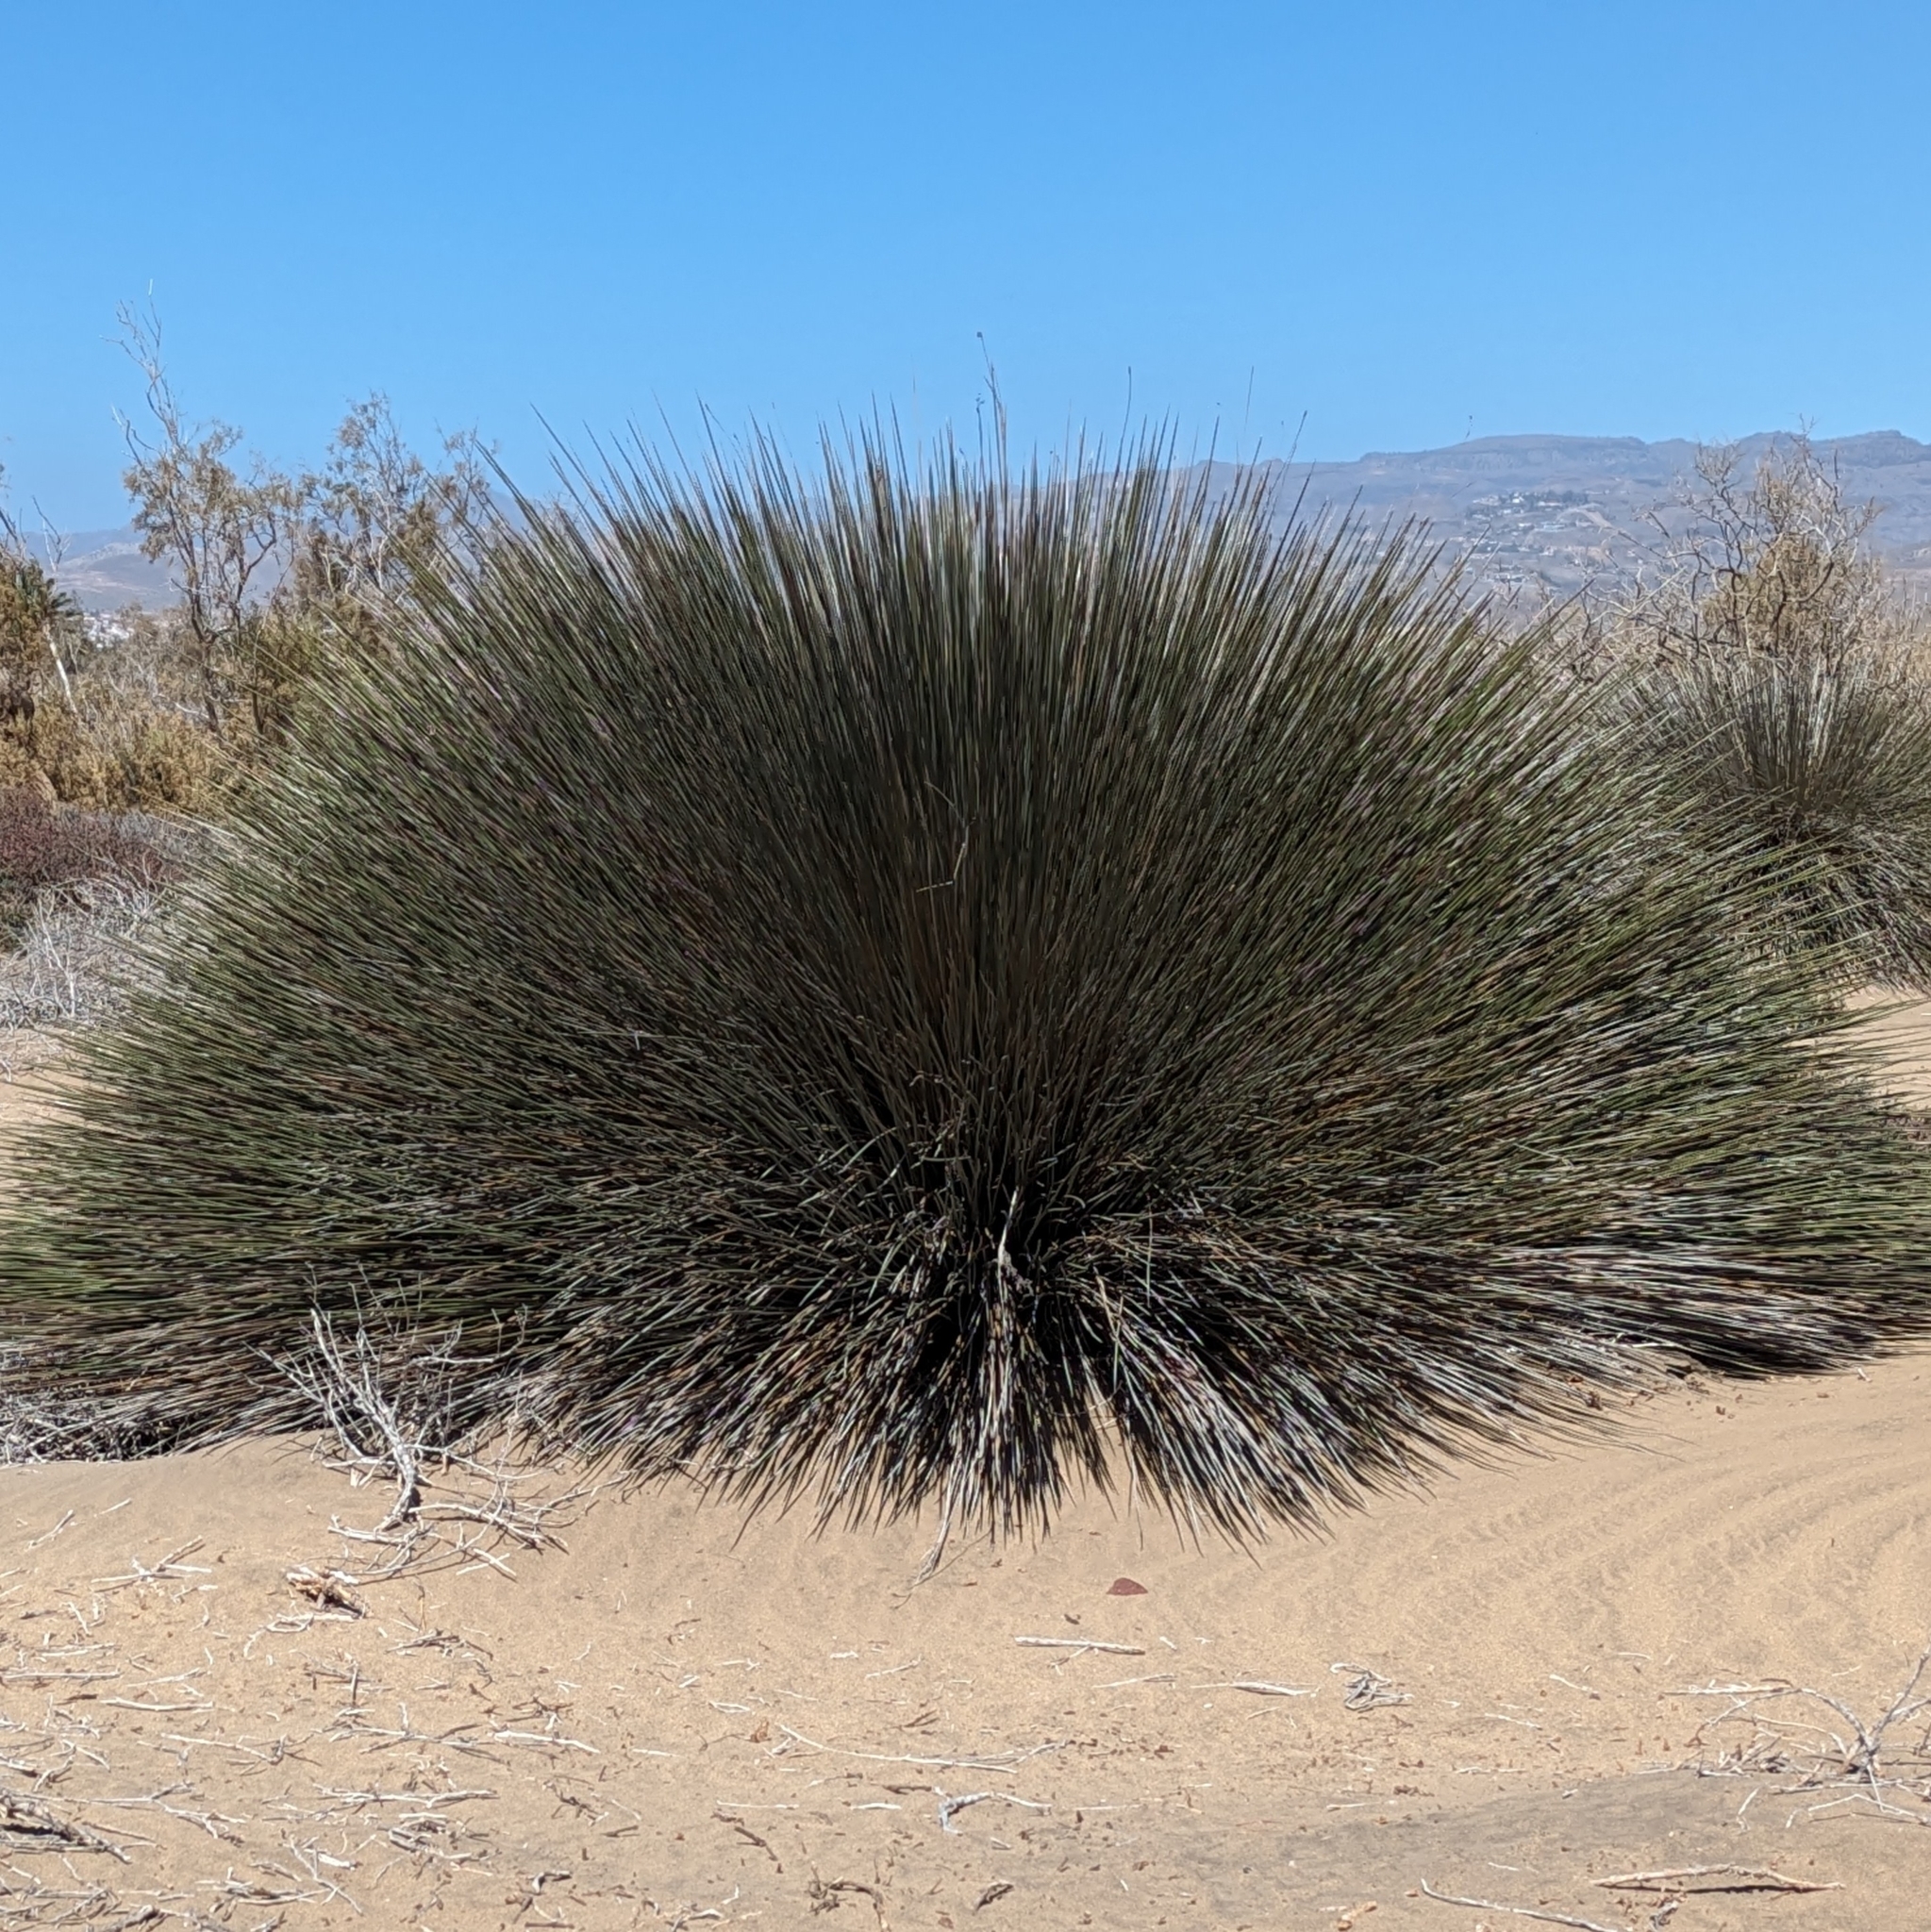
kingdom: Plantae
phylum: Tracheophyta
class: Liliopsida
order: Poales
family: Juncaceae
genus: Juncus
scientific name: Juncus acutus
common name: Sharp rush
